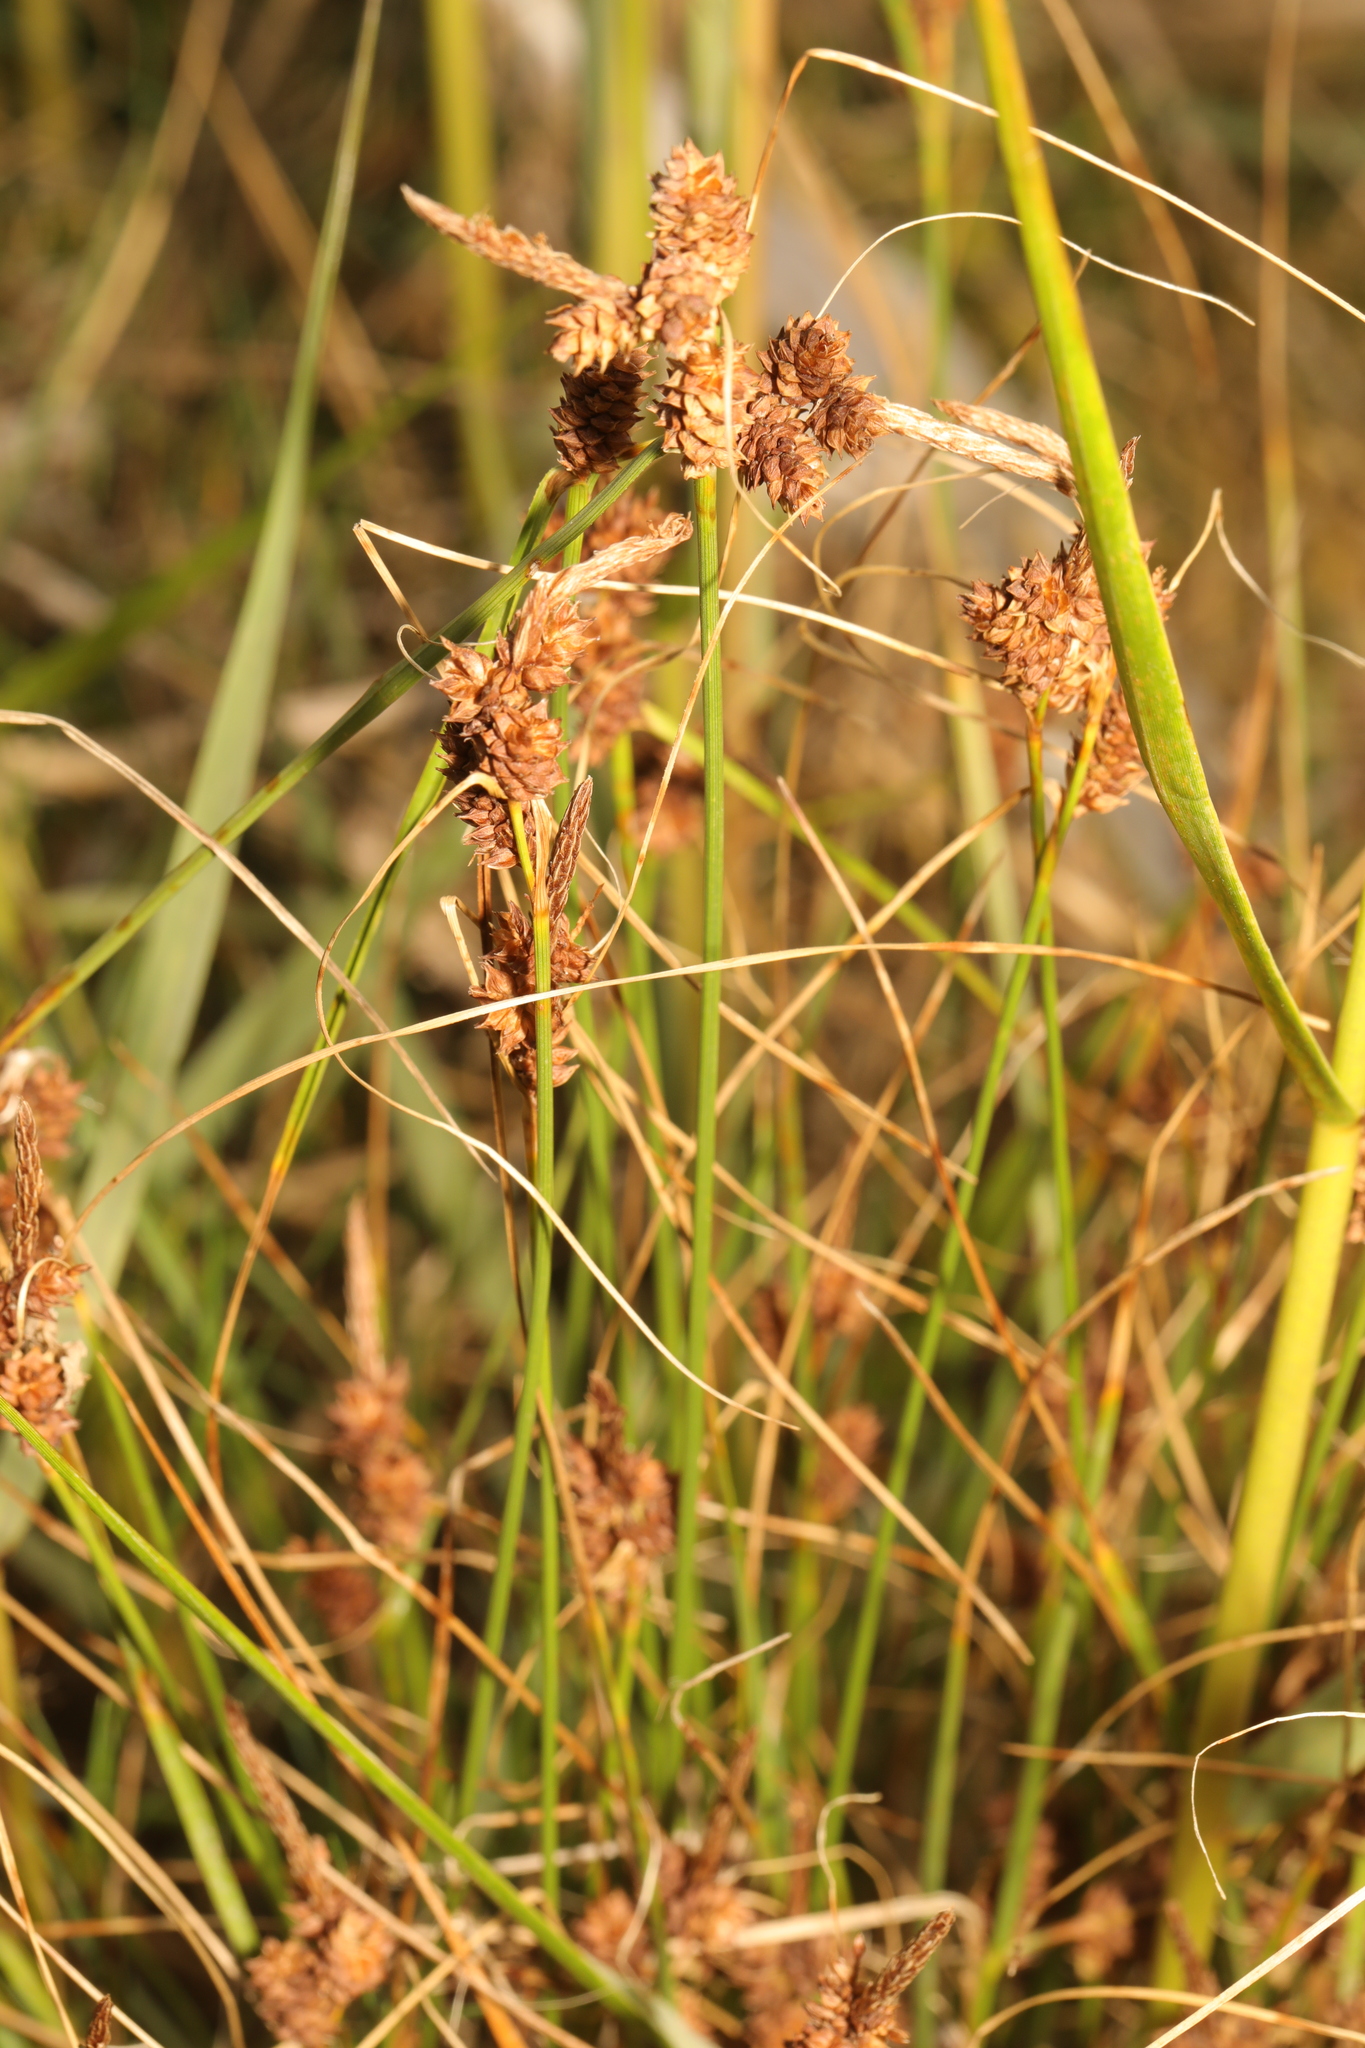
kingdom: Plantae
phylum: Tracheophyta
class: Liliopsida
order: Poales
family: Cyperaceae
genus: Carex
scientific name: Carex extensa
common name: Long-bracted sedge
